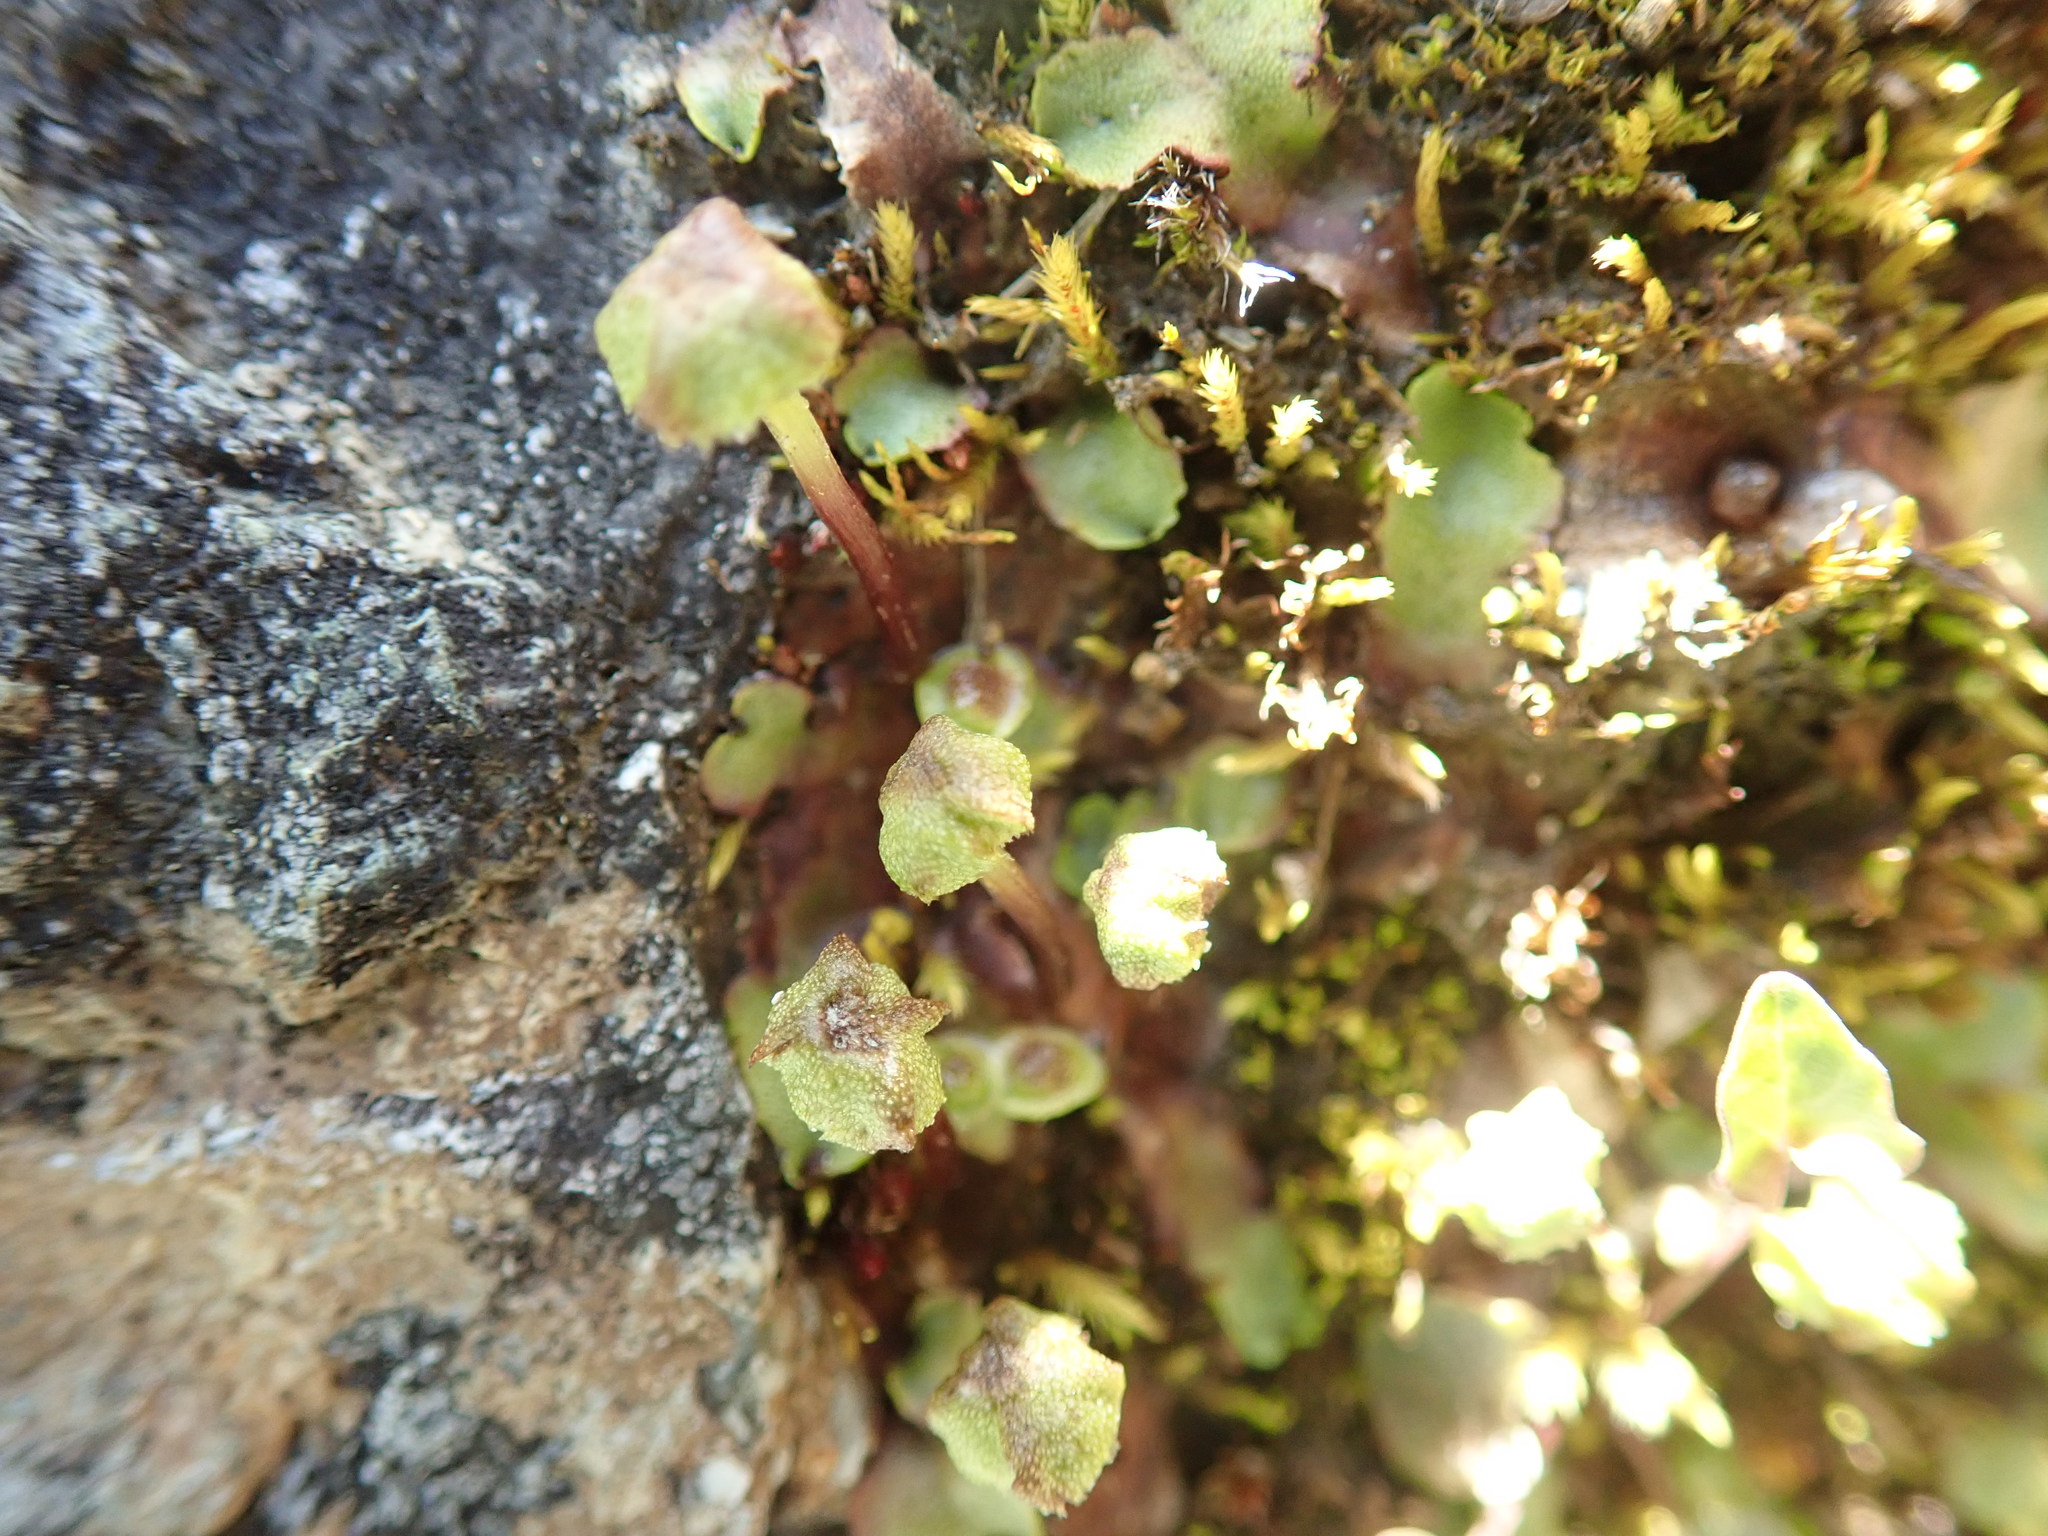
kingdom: Plantae
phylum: Marchantiophyta
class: Marchantiopsida
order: Marchantiales
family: Marchantiaceae
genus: Marchantia
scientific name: Marchantia quadrata
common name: Narrow mushroom-headed liverwort
